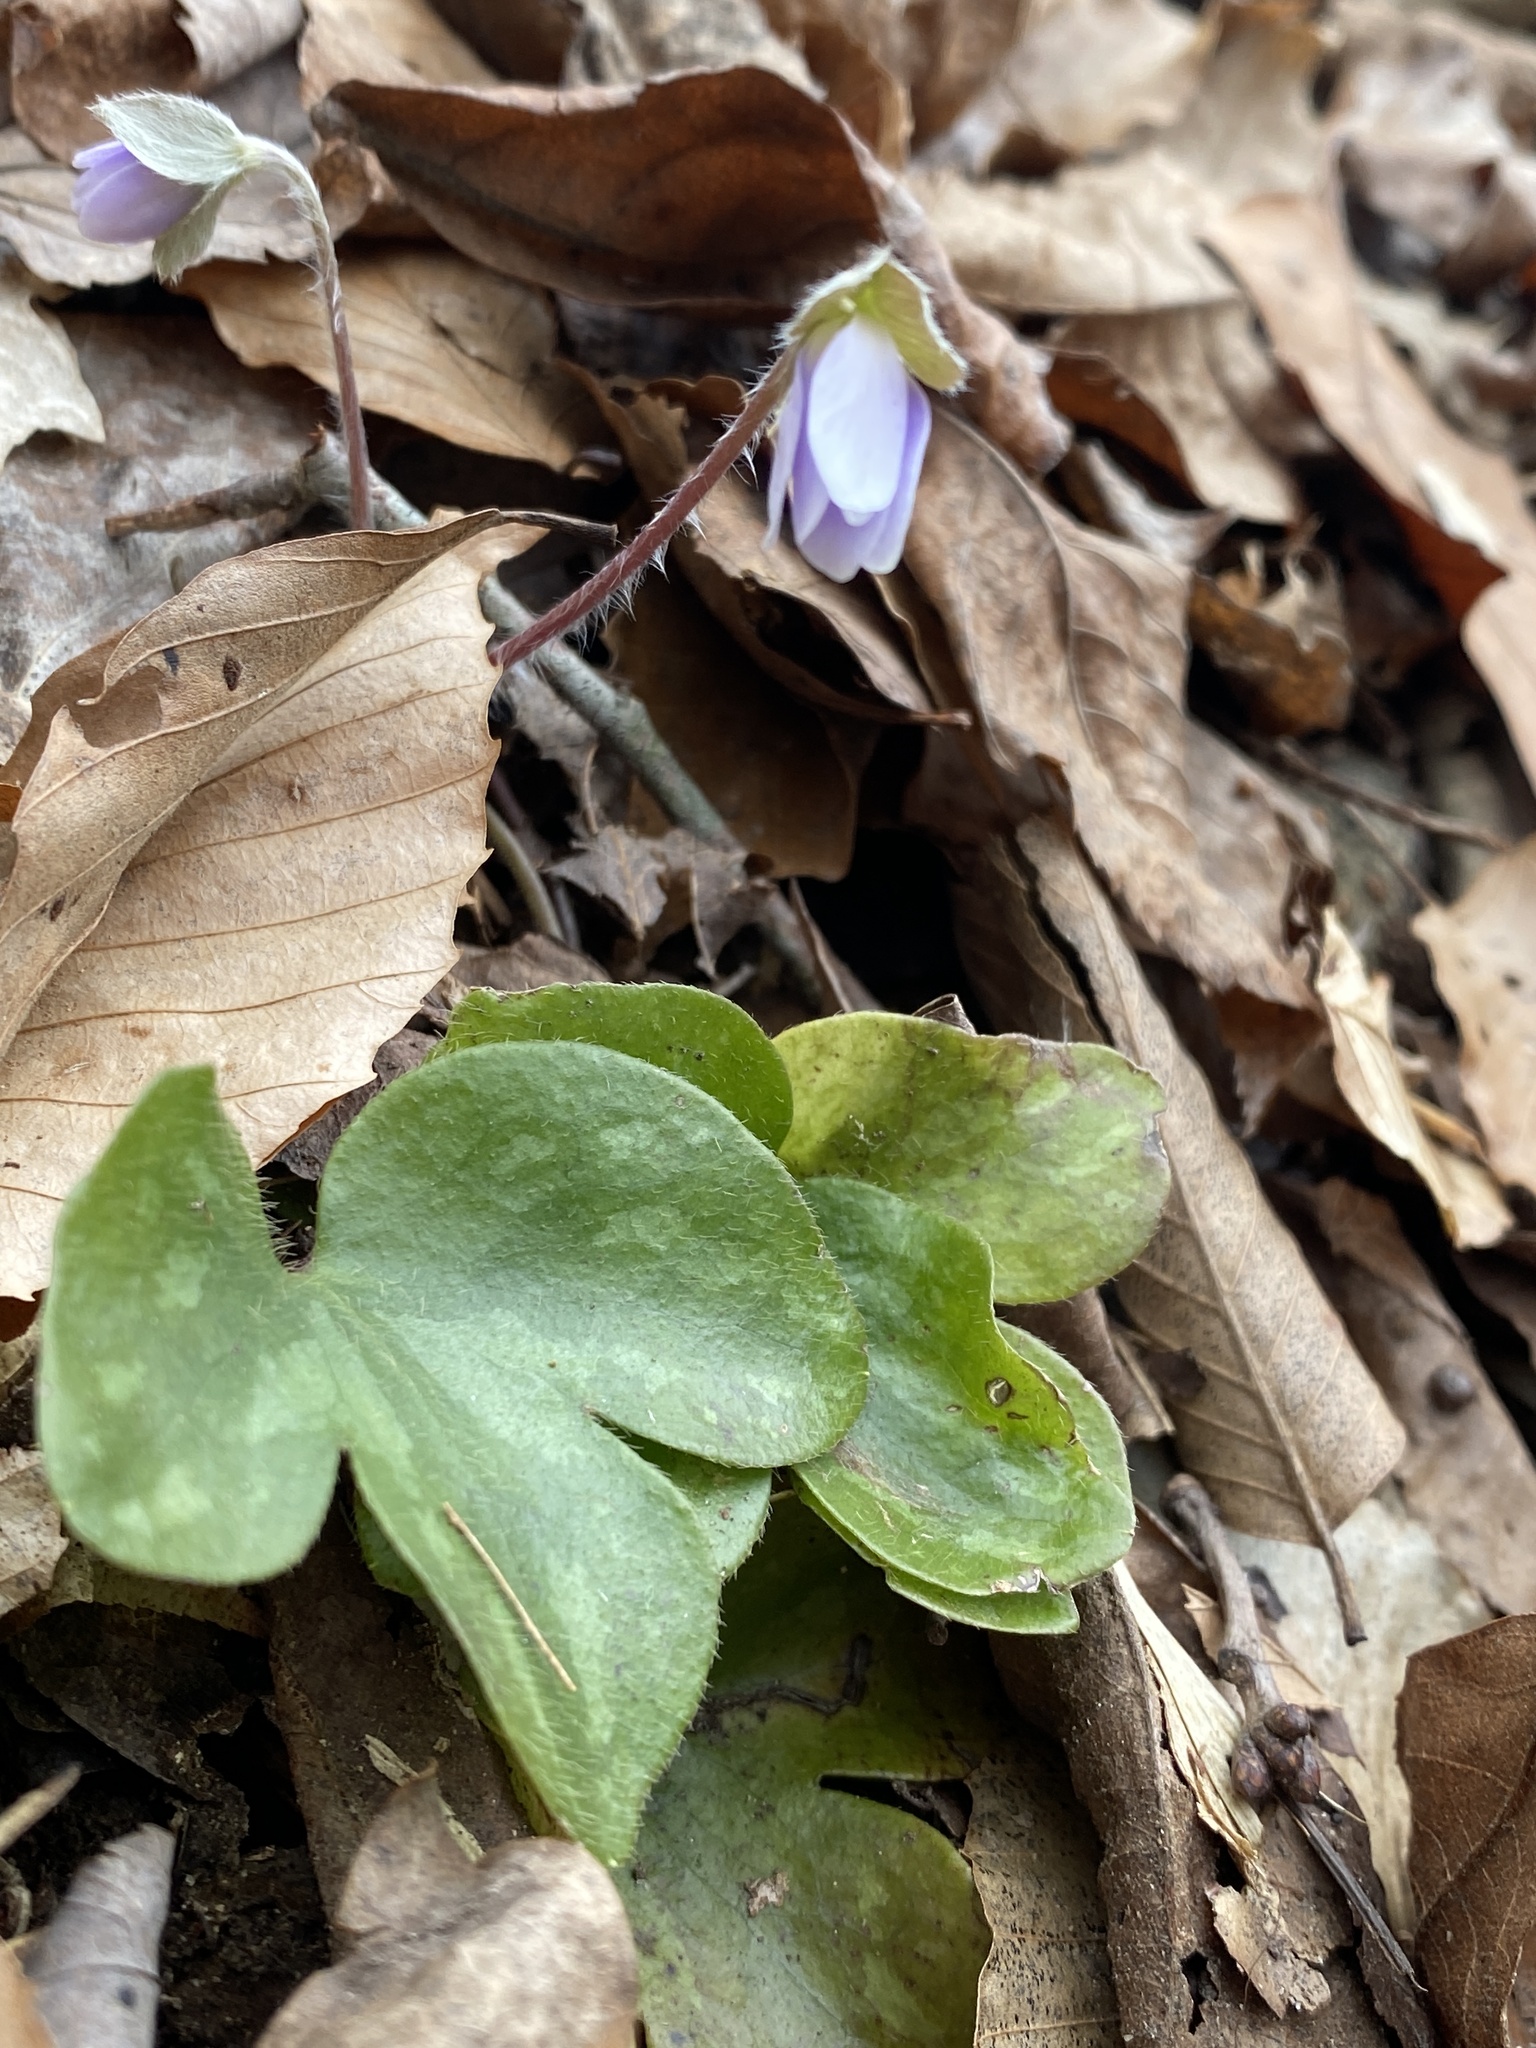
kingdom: Plantae
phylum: Tracheophyta
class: Magnoliopsida
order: Ranunculales
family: Ranunculaceae
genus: Hepatica
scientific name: Hepatica americana
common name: American hepatica
